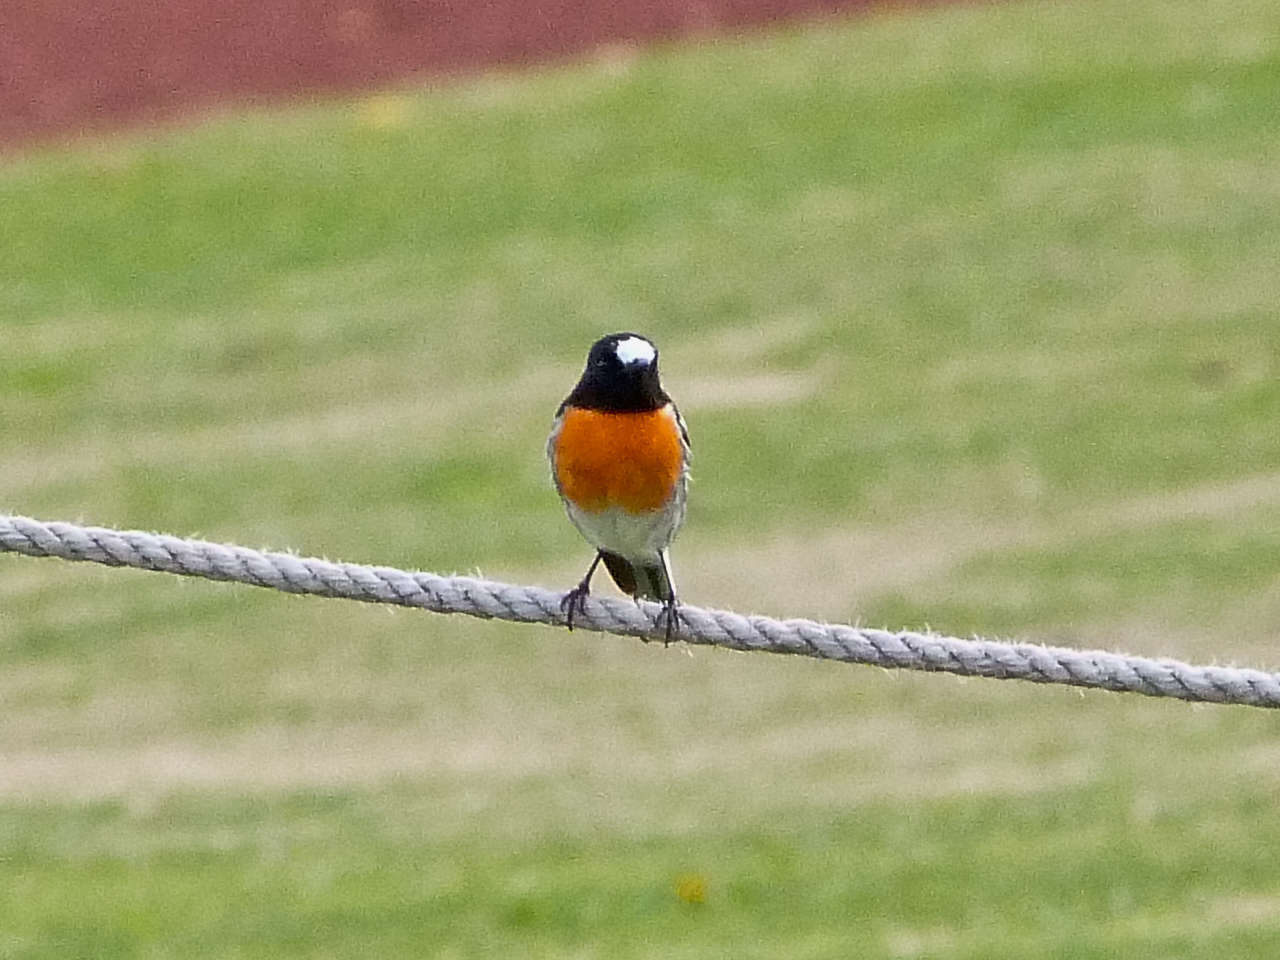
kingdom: Animalia
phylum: Chordata
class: Aves
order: Passeriformes
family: Petroicidae
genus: Petroica
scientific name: Petroica boodang
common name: Scarlet robin
